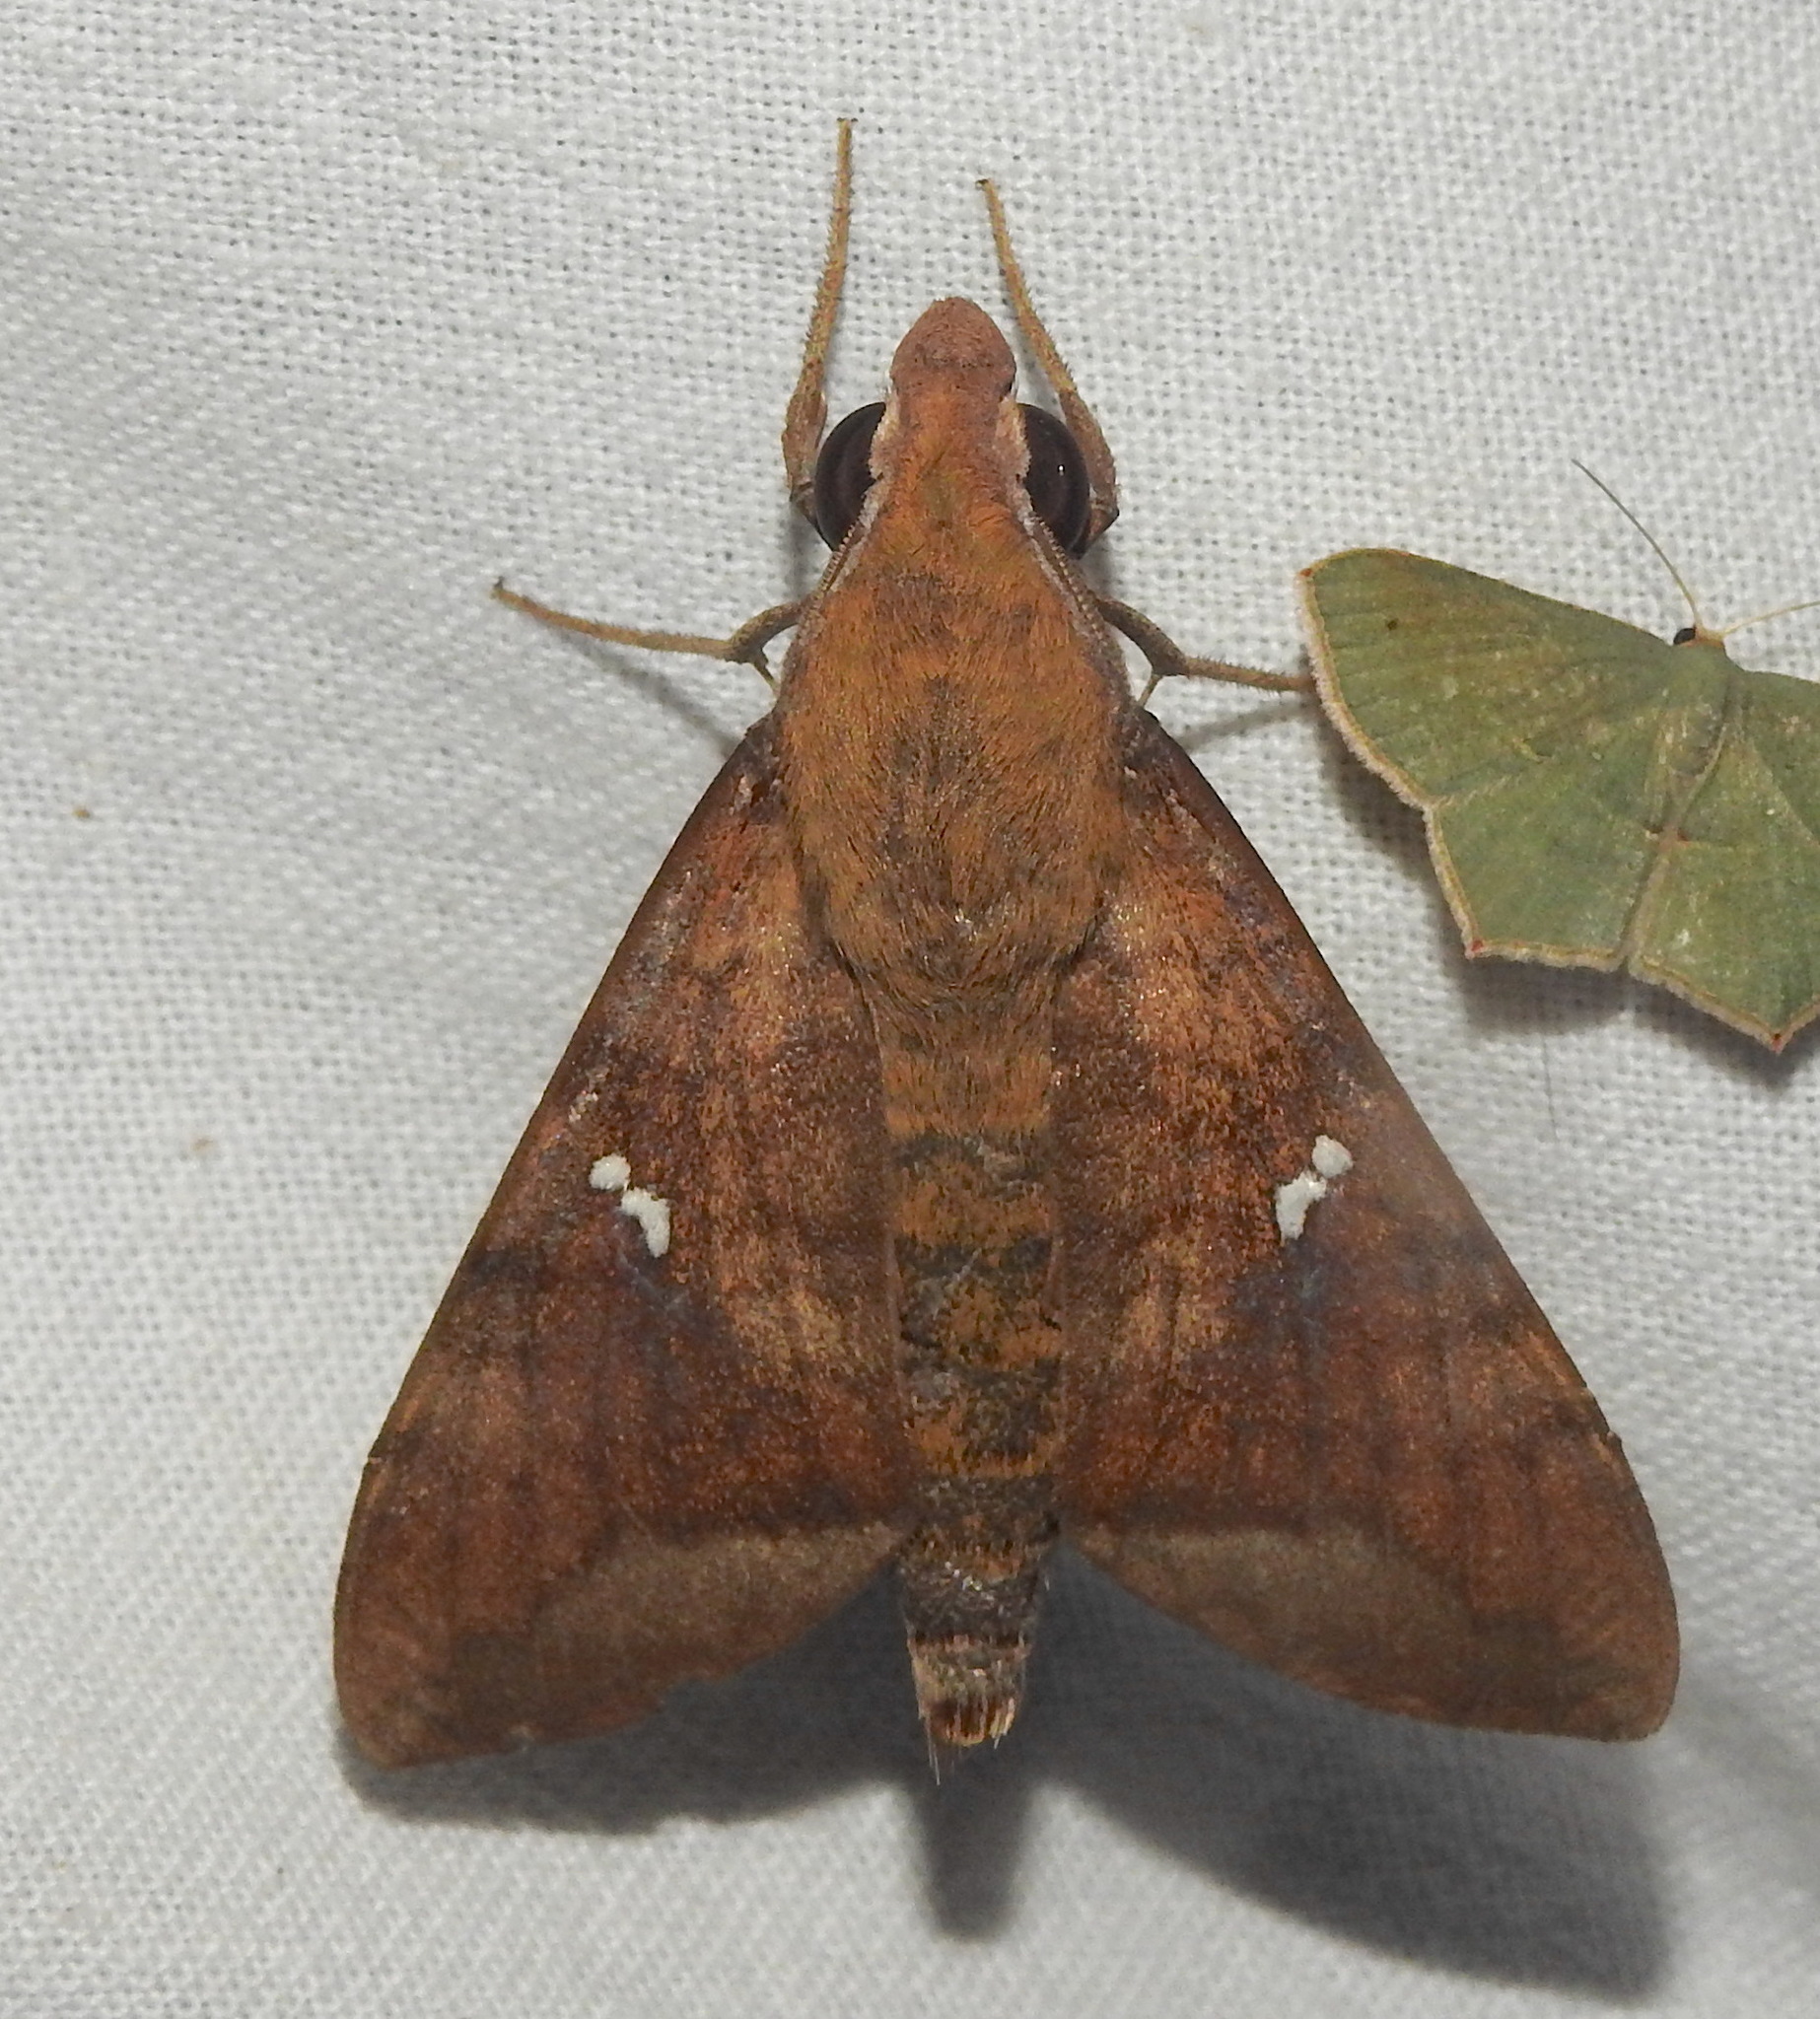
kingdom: Animalia
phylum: Arthropoda
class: Insecta
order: Lepidoptera
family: Sphingidae
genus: Nephele
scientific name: Nephele hespera
